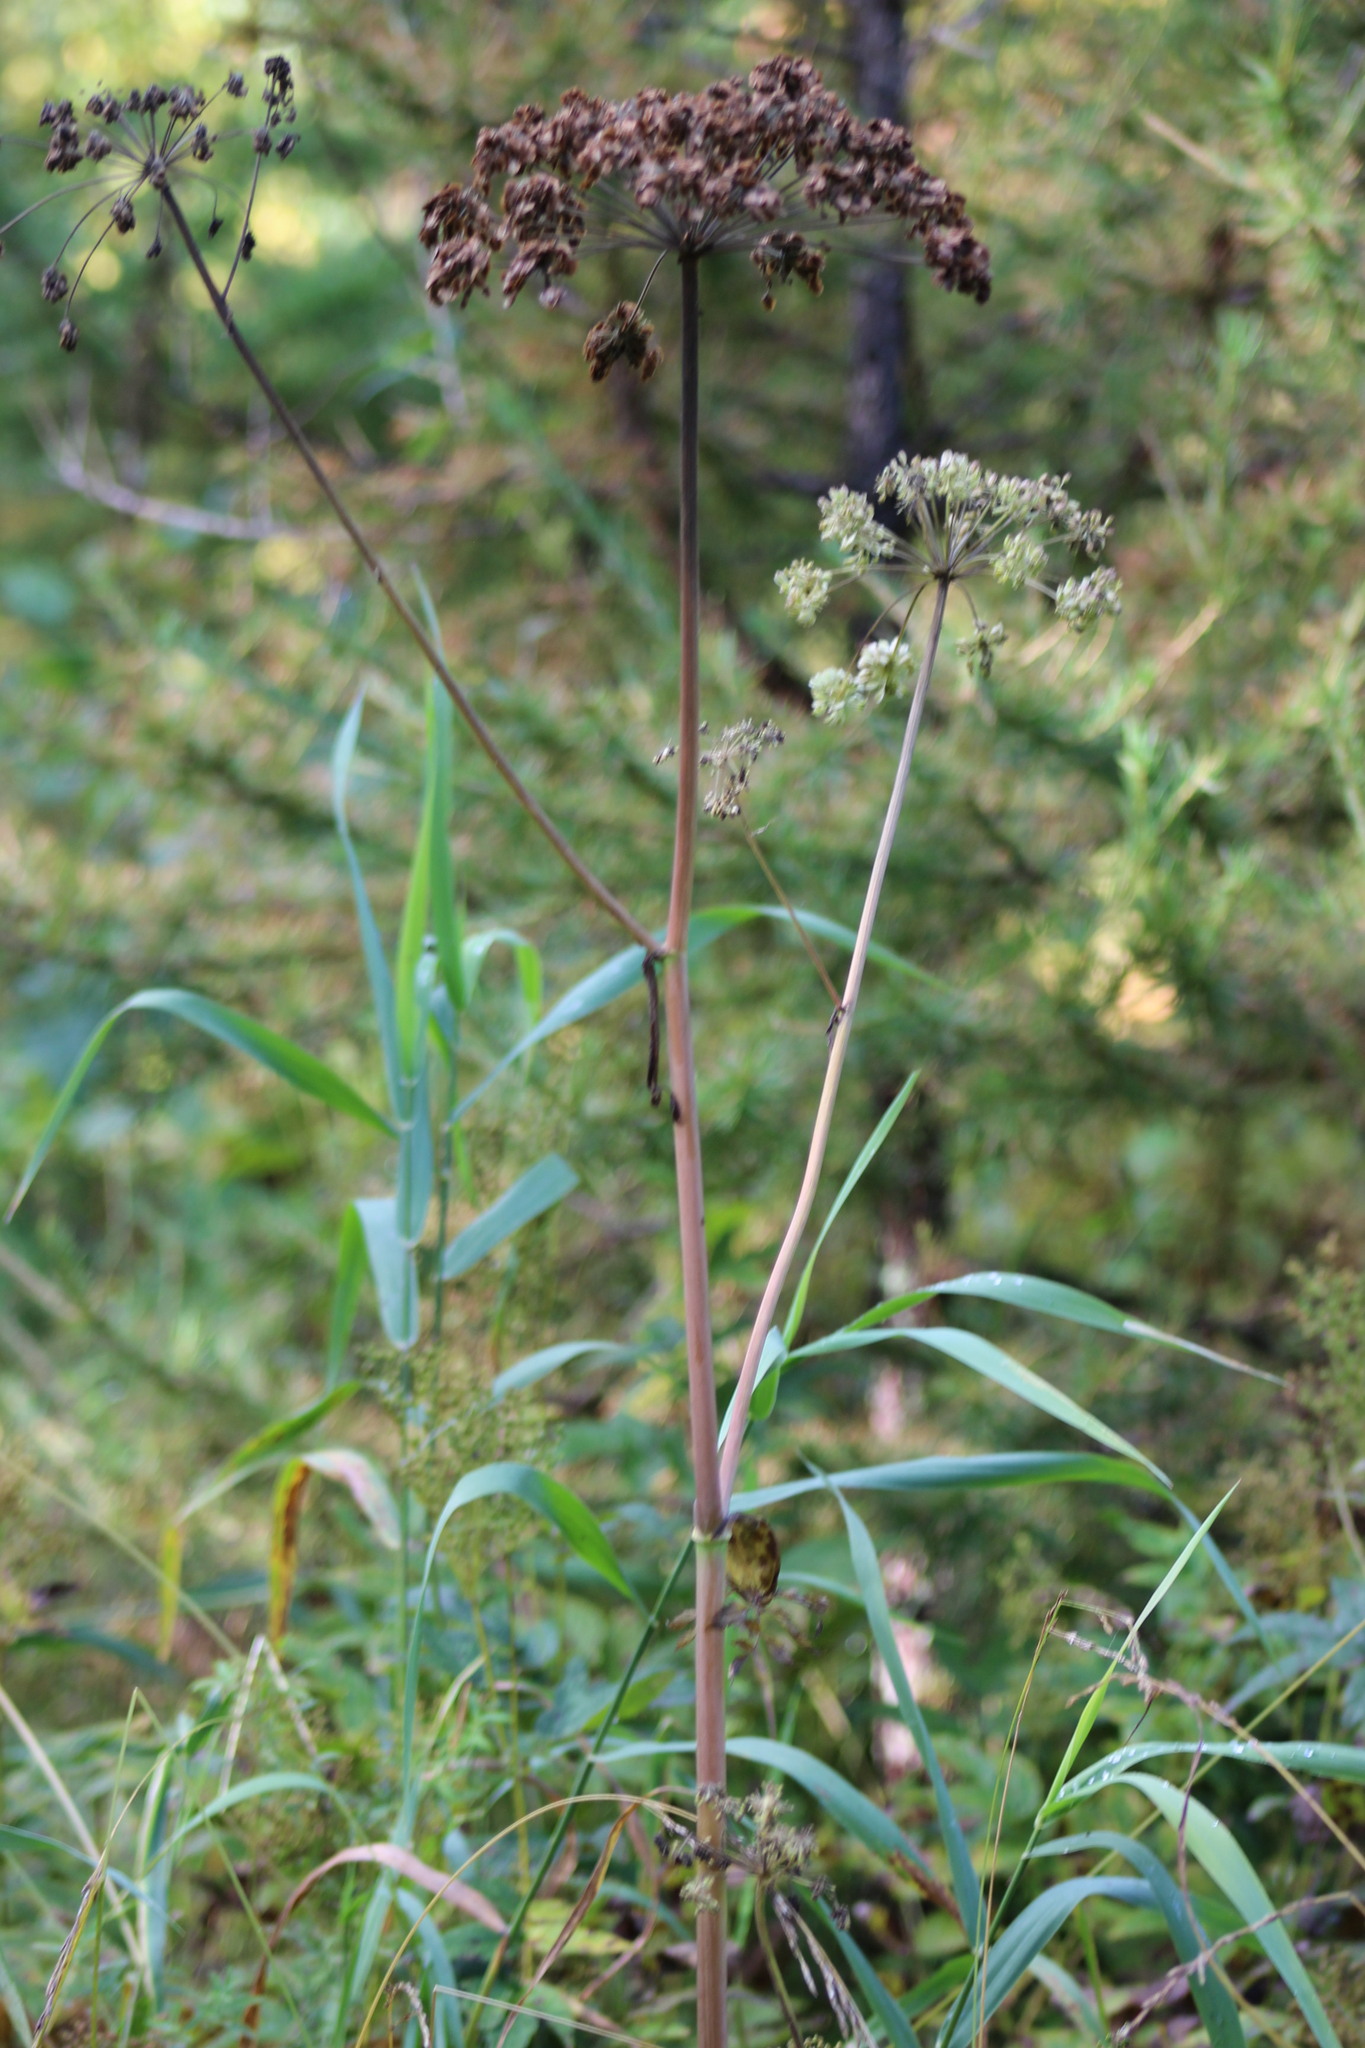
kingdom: Plantae
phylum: Tracheophyta
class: Magnoliopsida
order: Apiales
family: Apiaceae
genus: Angelica
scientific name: Angelica sylvestris
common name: Wild angelica
